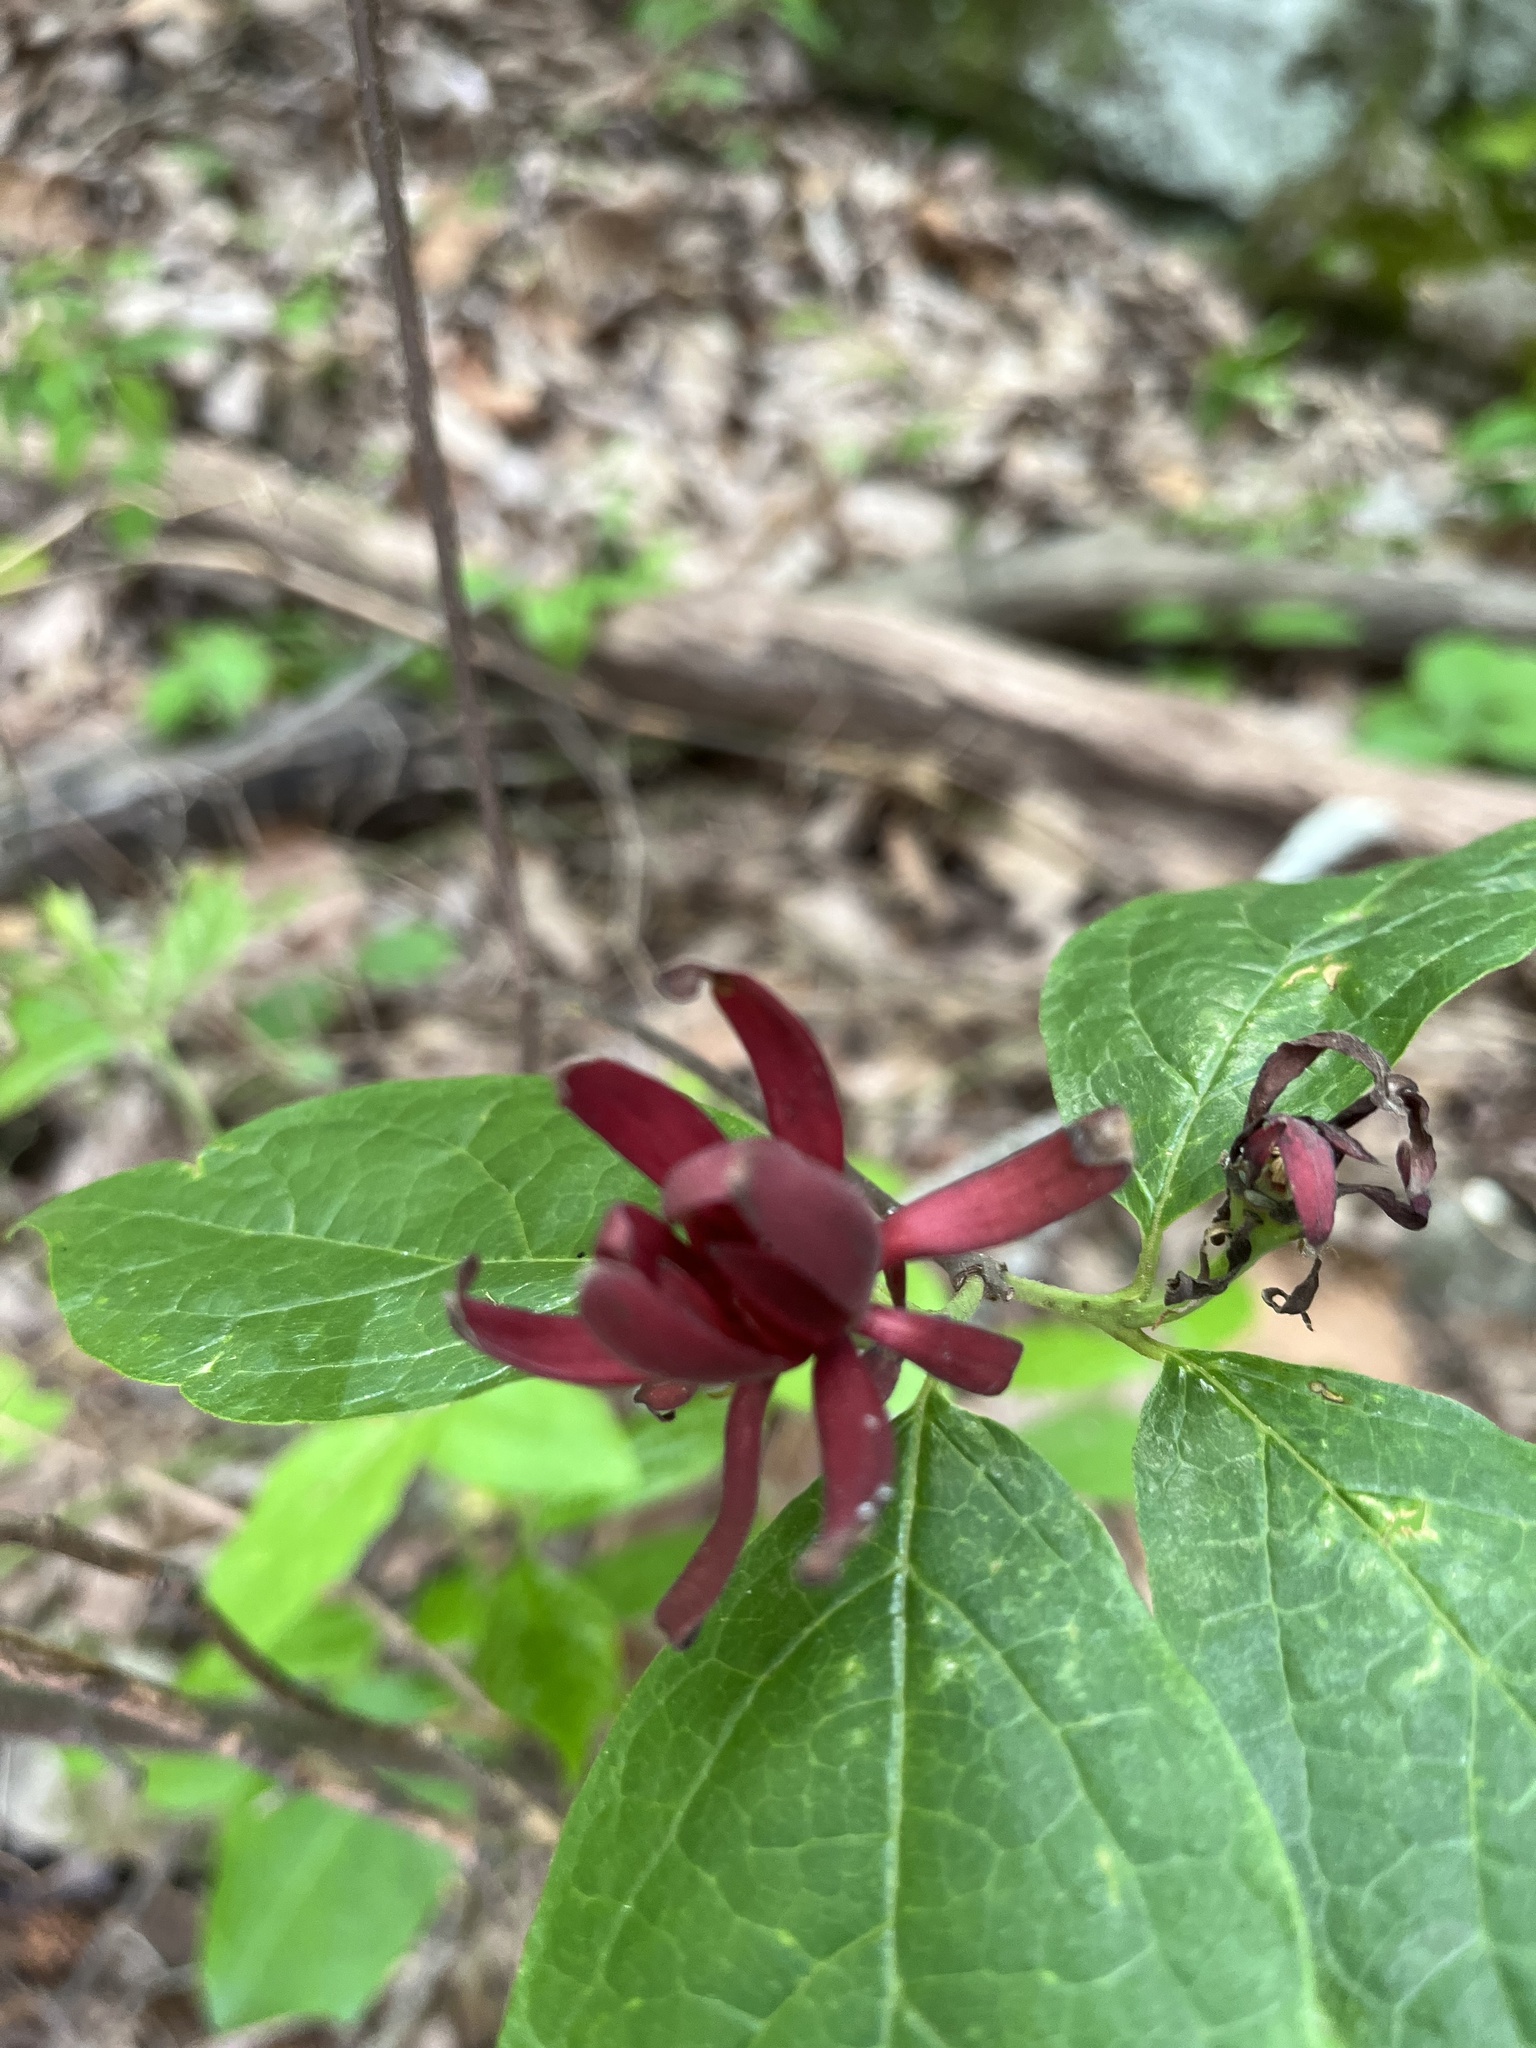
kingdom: Plantae
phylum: Tracheophyta
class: Magnoliopsida
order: Laurales
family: Calycanthaceae
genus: Calycanthus
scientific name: Calycanthus floridus
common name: Carolina-allspice
